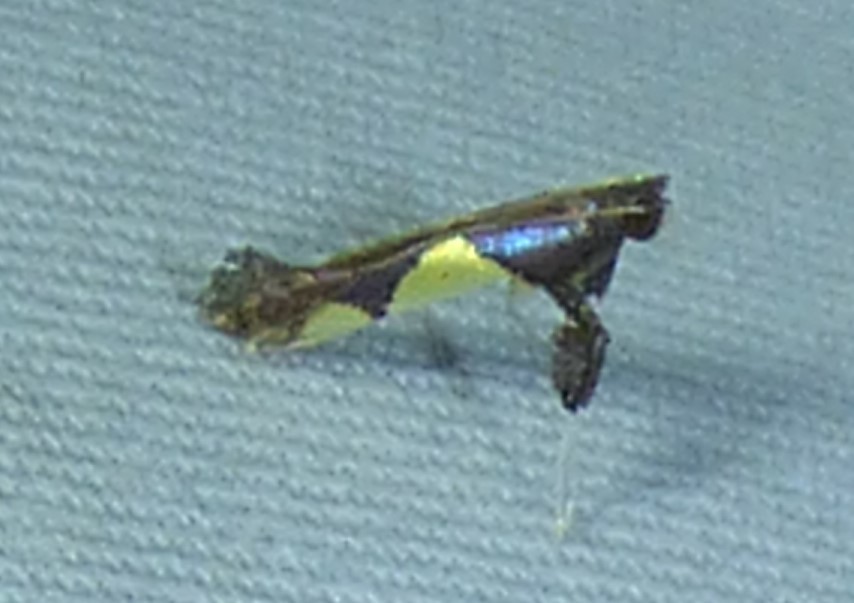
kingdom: Animalia
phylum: Arthropoda
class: Insecta
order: Lepidoptera
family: Gracillariidae
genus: Caloptilia
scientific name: Caloptilia bimaculatella
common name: Maple caloptilia moth
